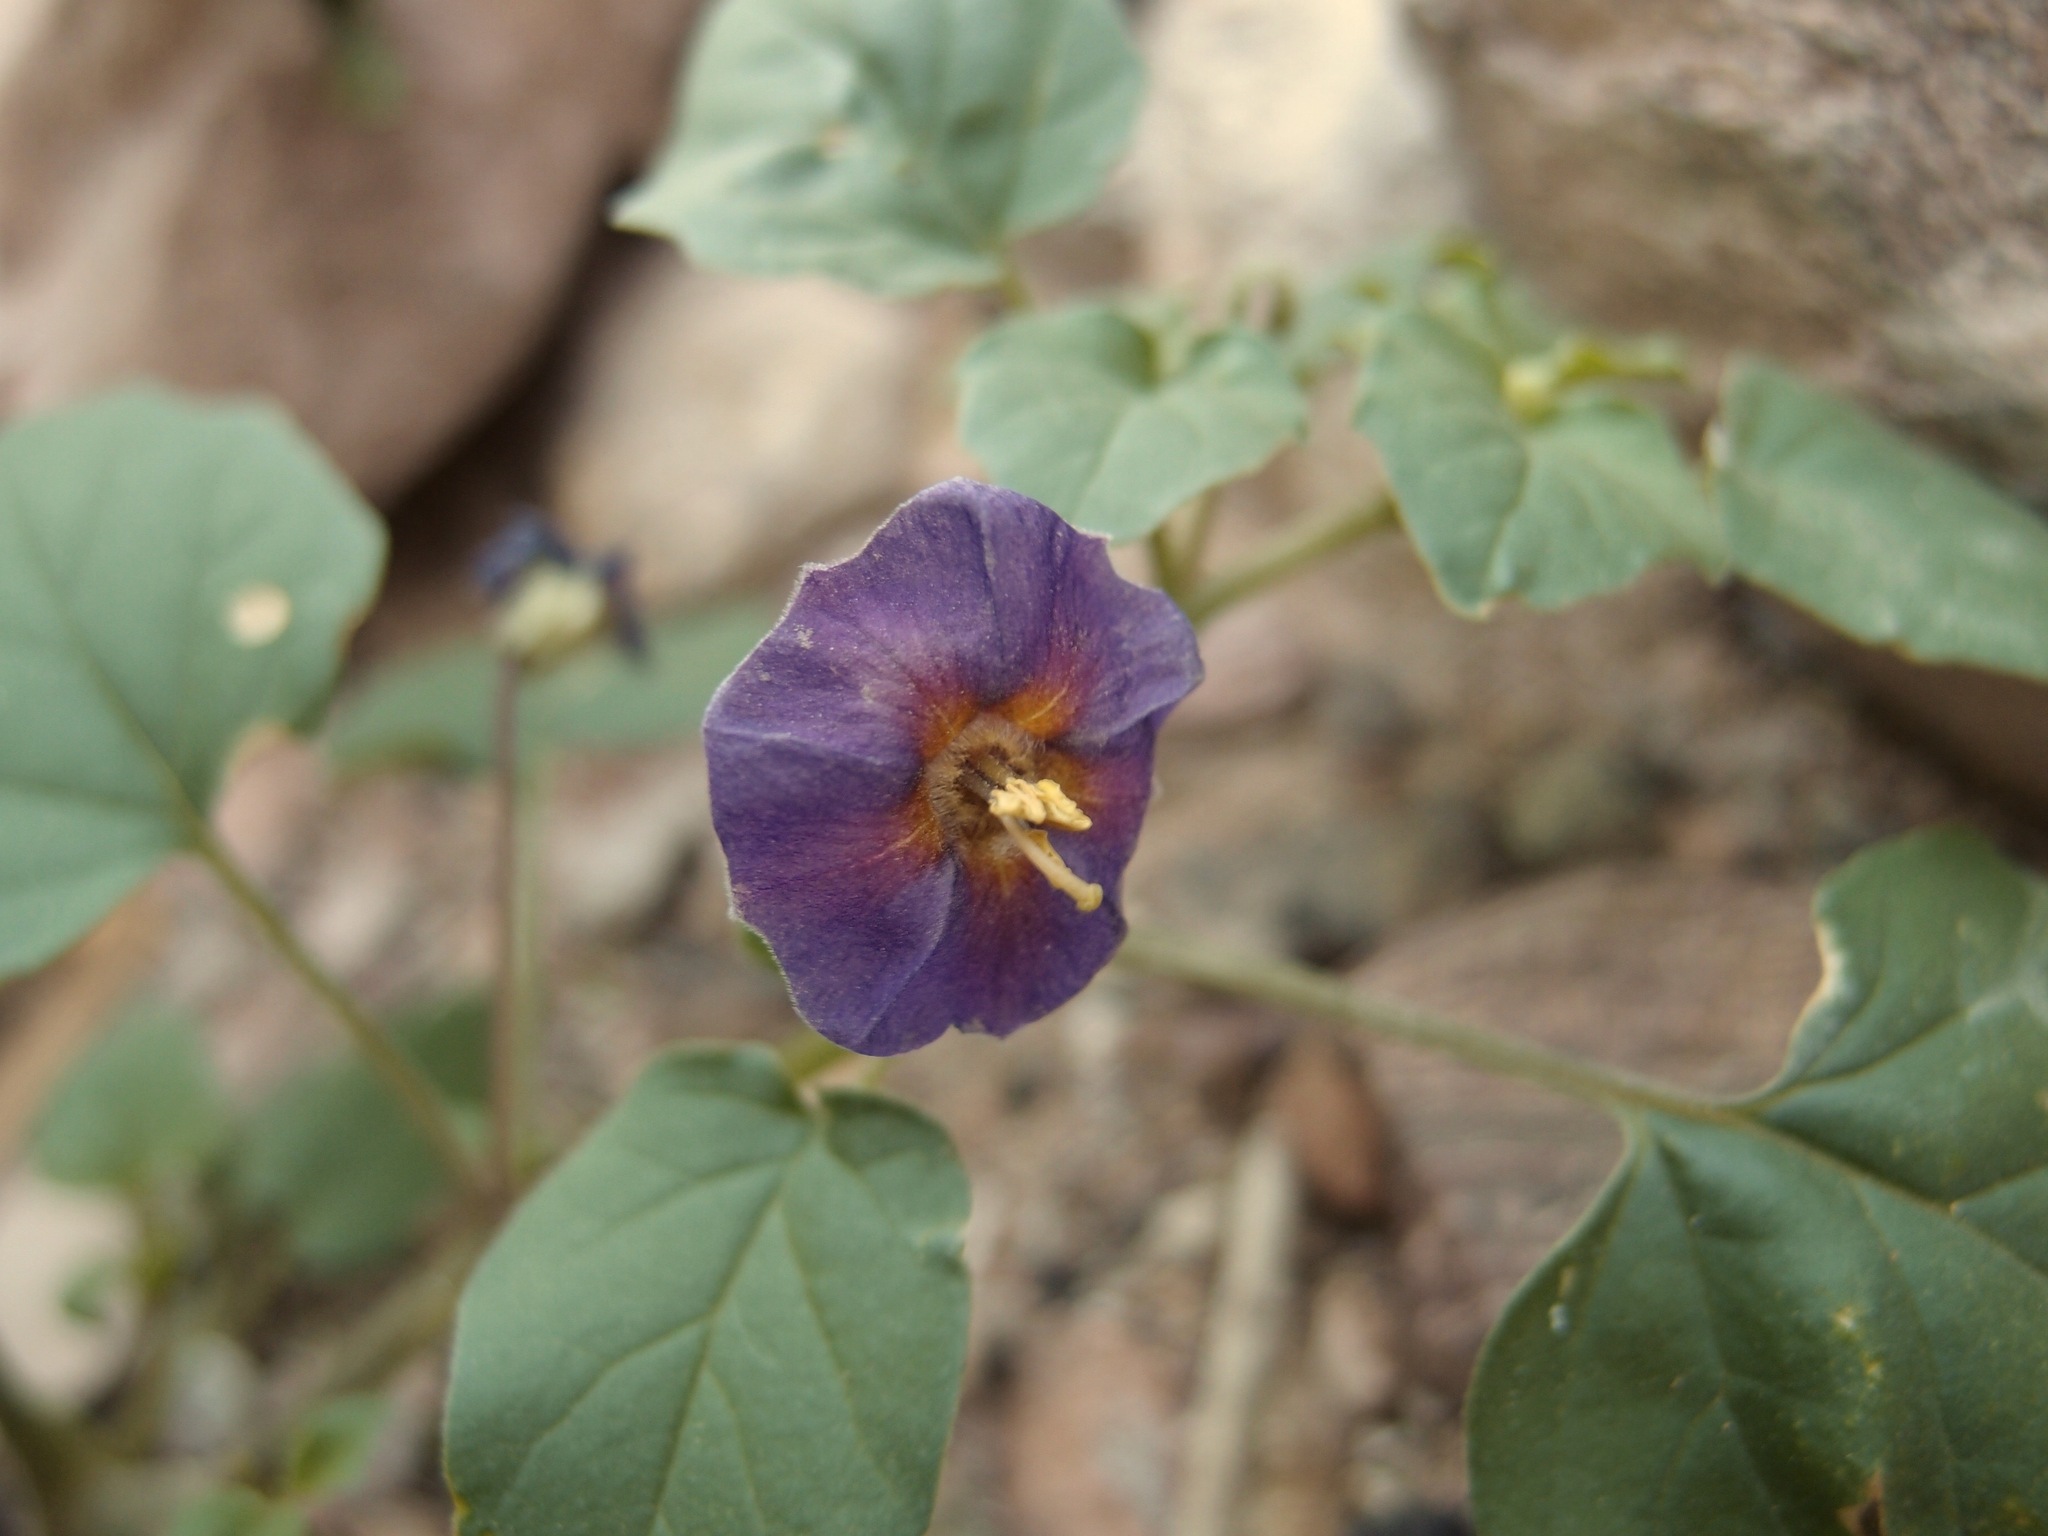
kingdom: Plantae
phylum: Tracheophyta
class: Magnoliopsida
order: Solanales
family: Solanaceae
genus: Physalis
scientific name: Physalis purpurea
